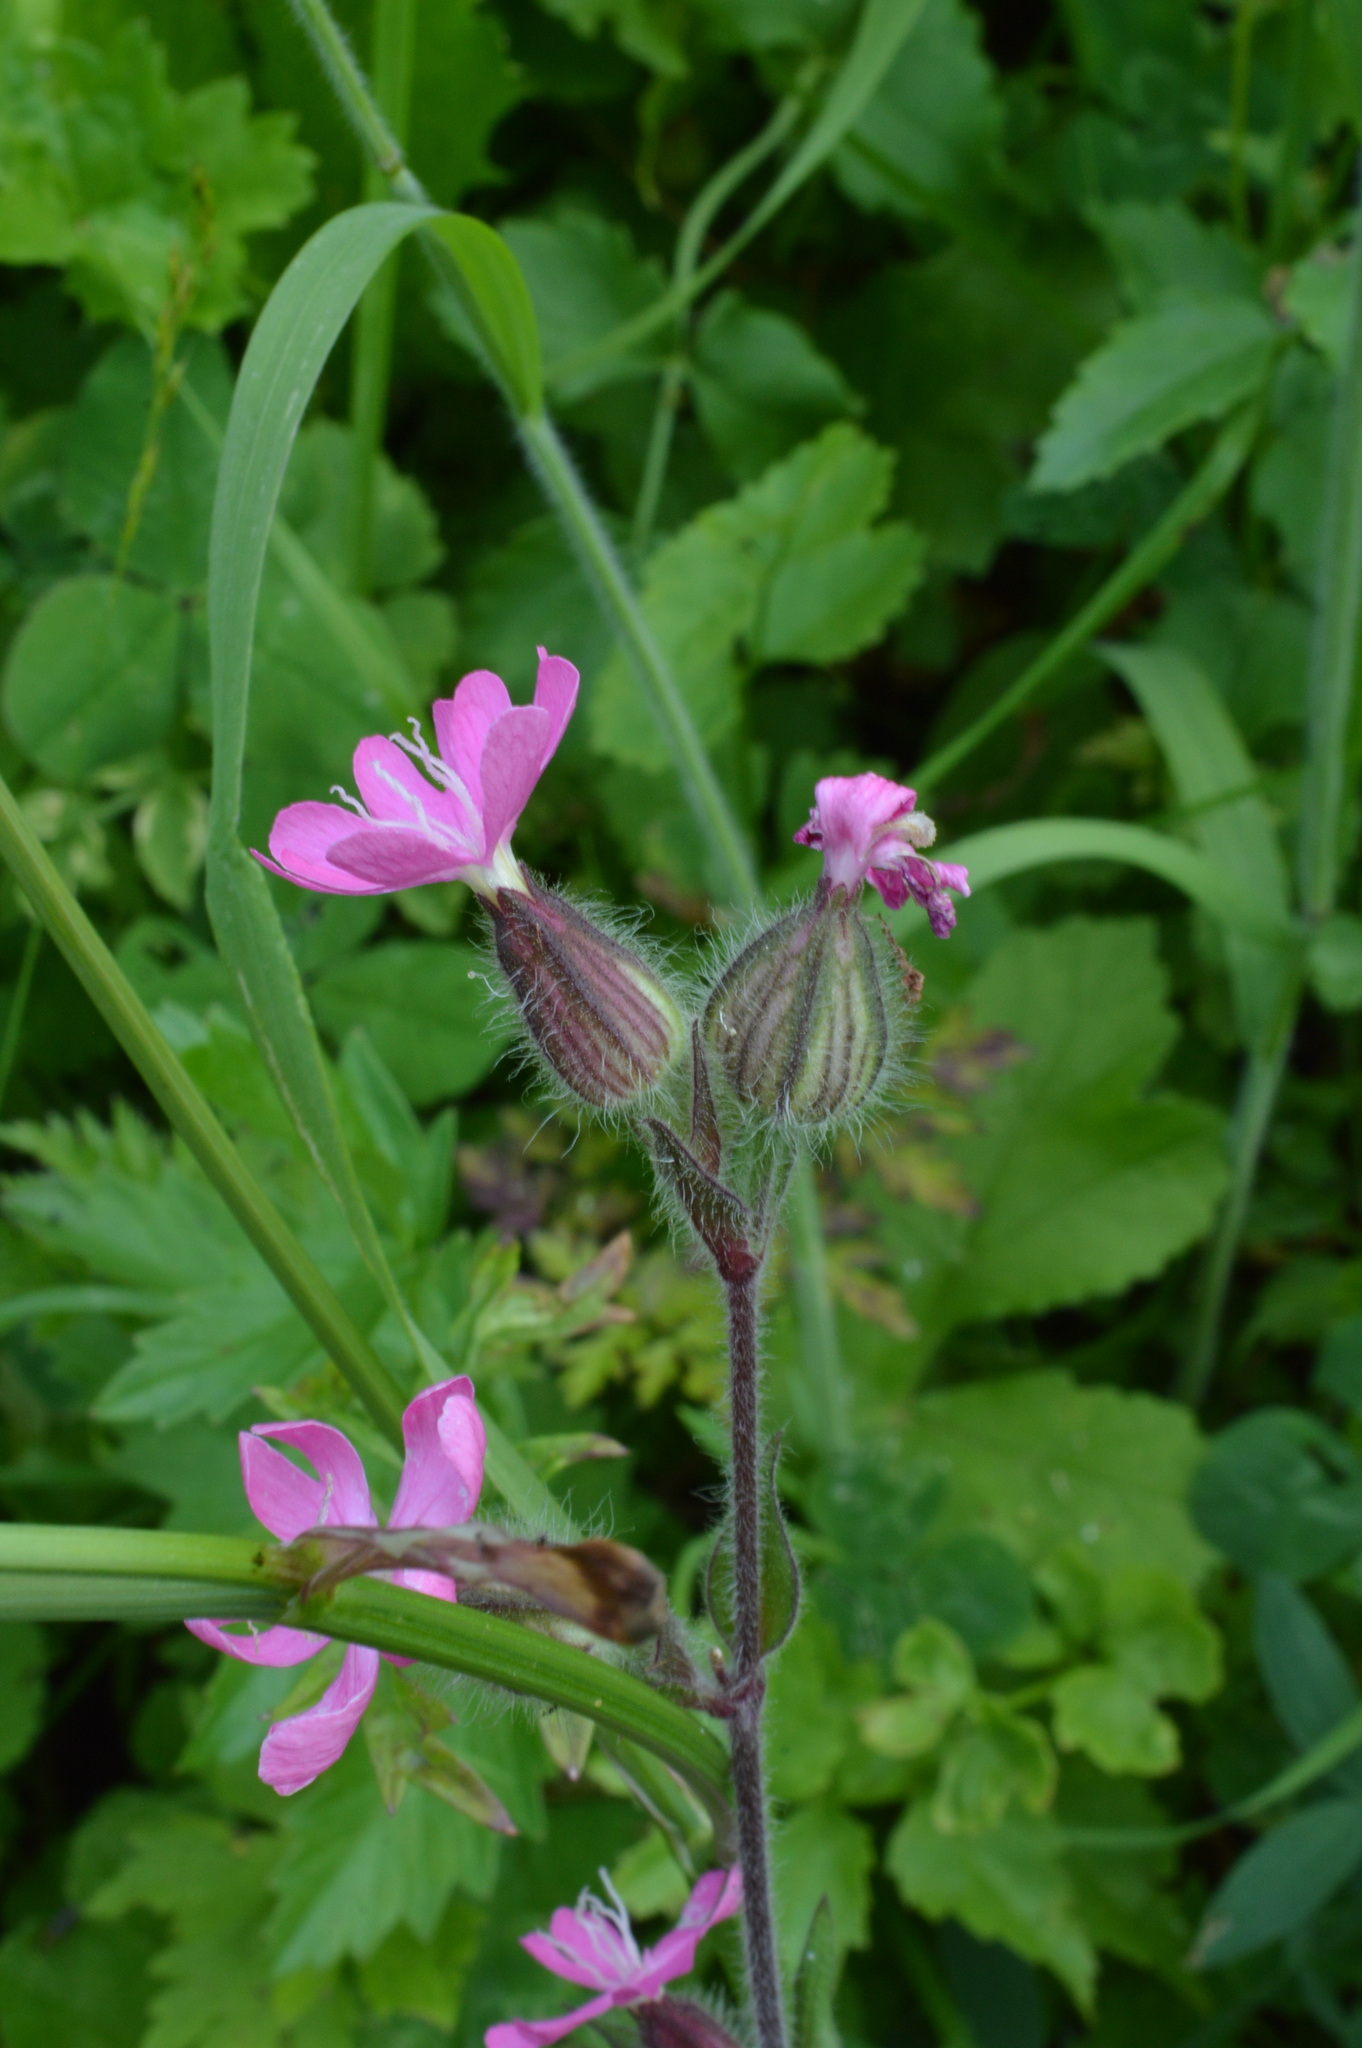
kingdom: Plantae
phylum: Tracheophyta
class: Magnoliopsida
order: Caryophyllales
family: Caryophyllaceae
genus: Silene
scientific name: Silene dioica
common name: Red campion
